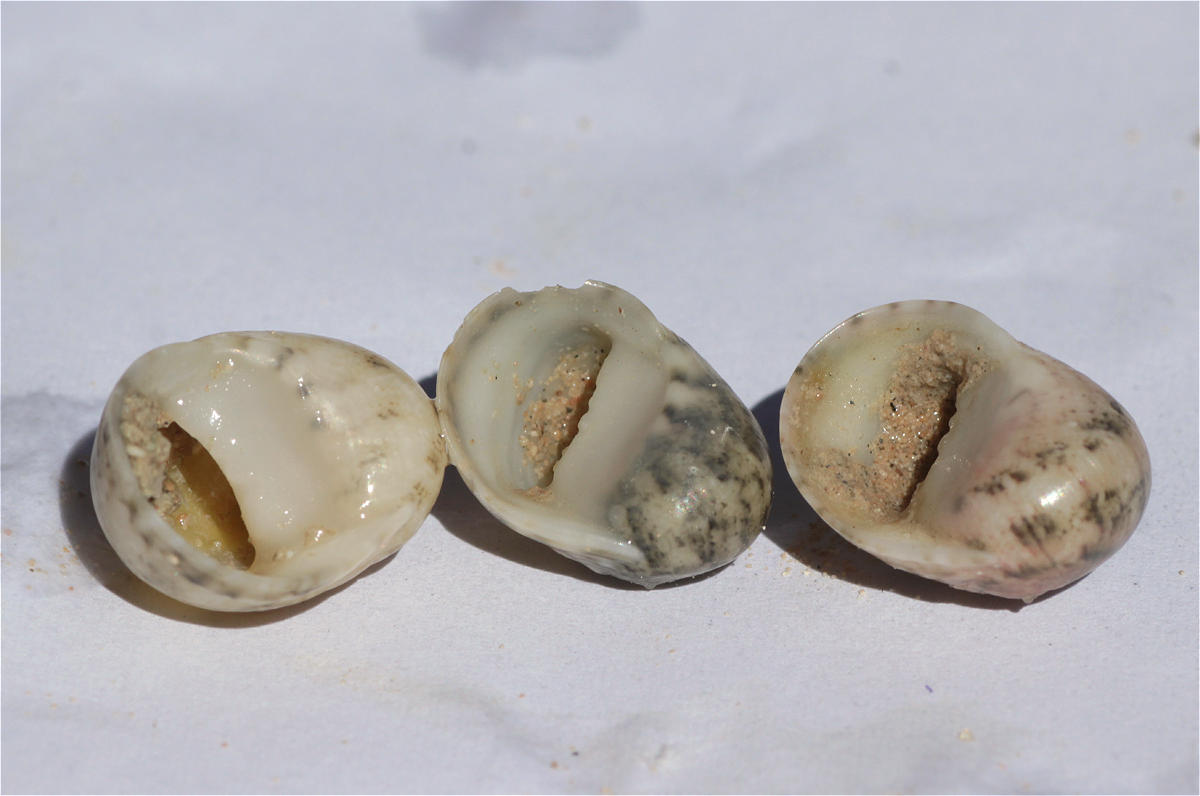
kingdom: Animalia
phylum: Mollusca
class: Gastropoda
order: Cycloneritida
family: Neritidae
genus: Nerita
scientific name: Nerita orbignyana
